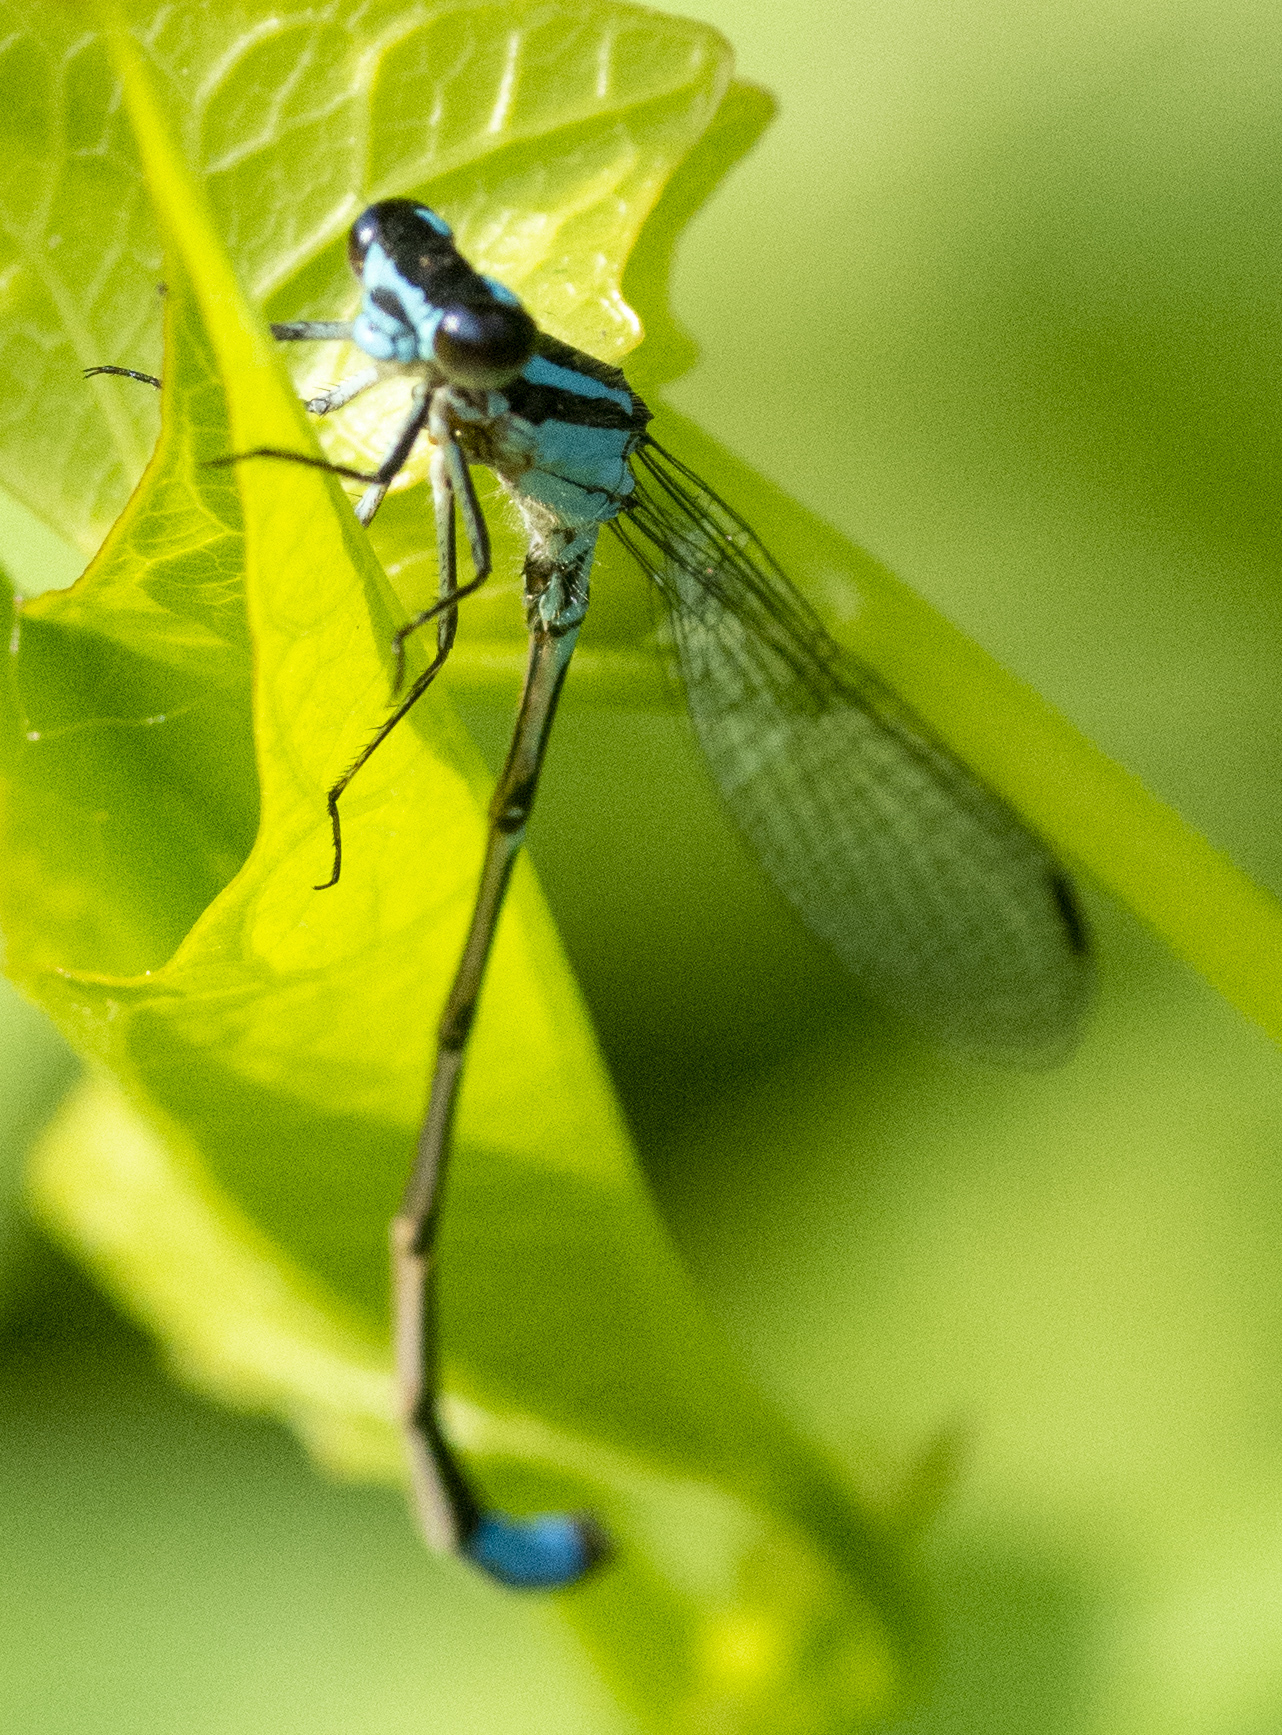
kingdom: Animalia
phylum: Arthropoda
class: Insecta
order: Odonata
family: Coenagrionidae
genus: Enallagma
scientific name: Enallagma geminatum
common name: Skimming bluet
